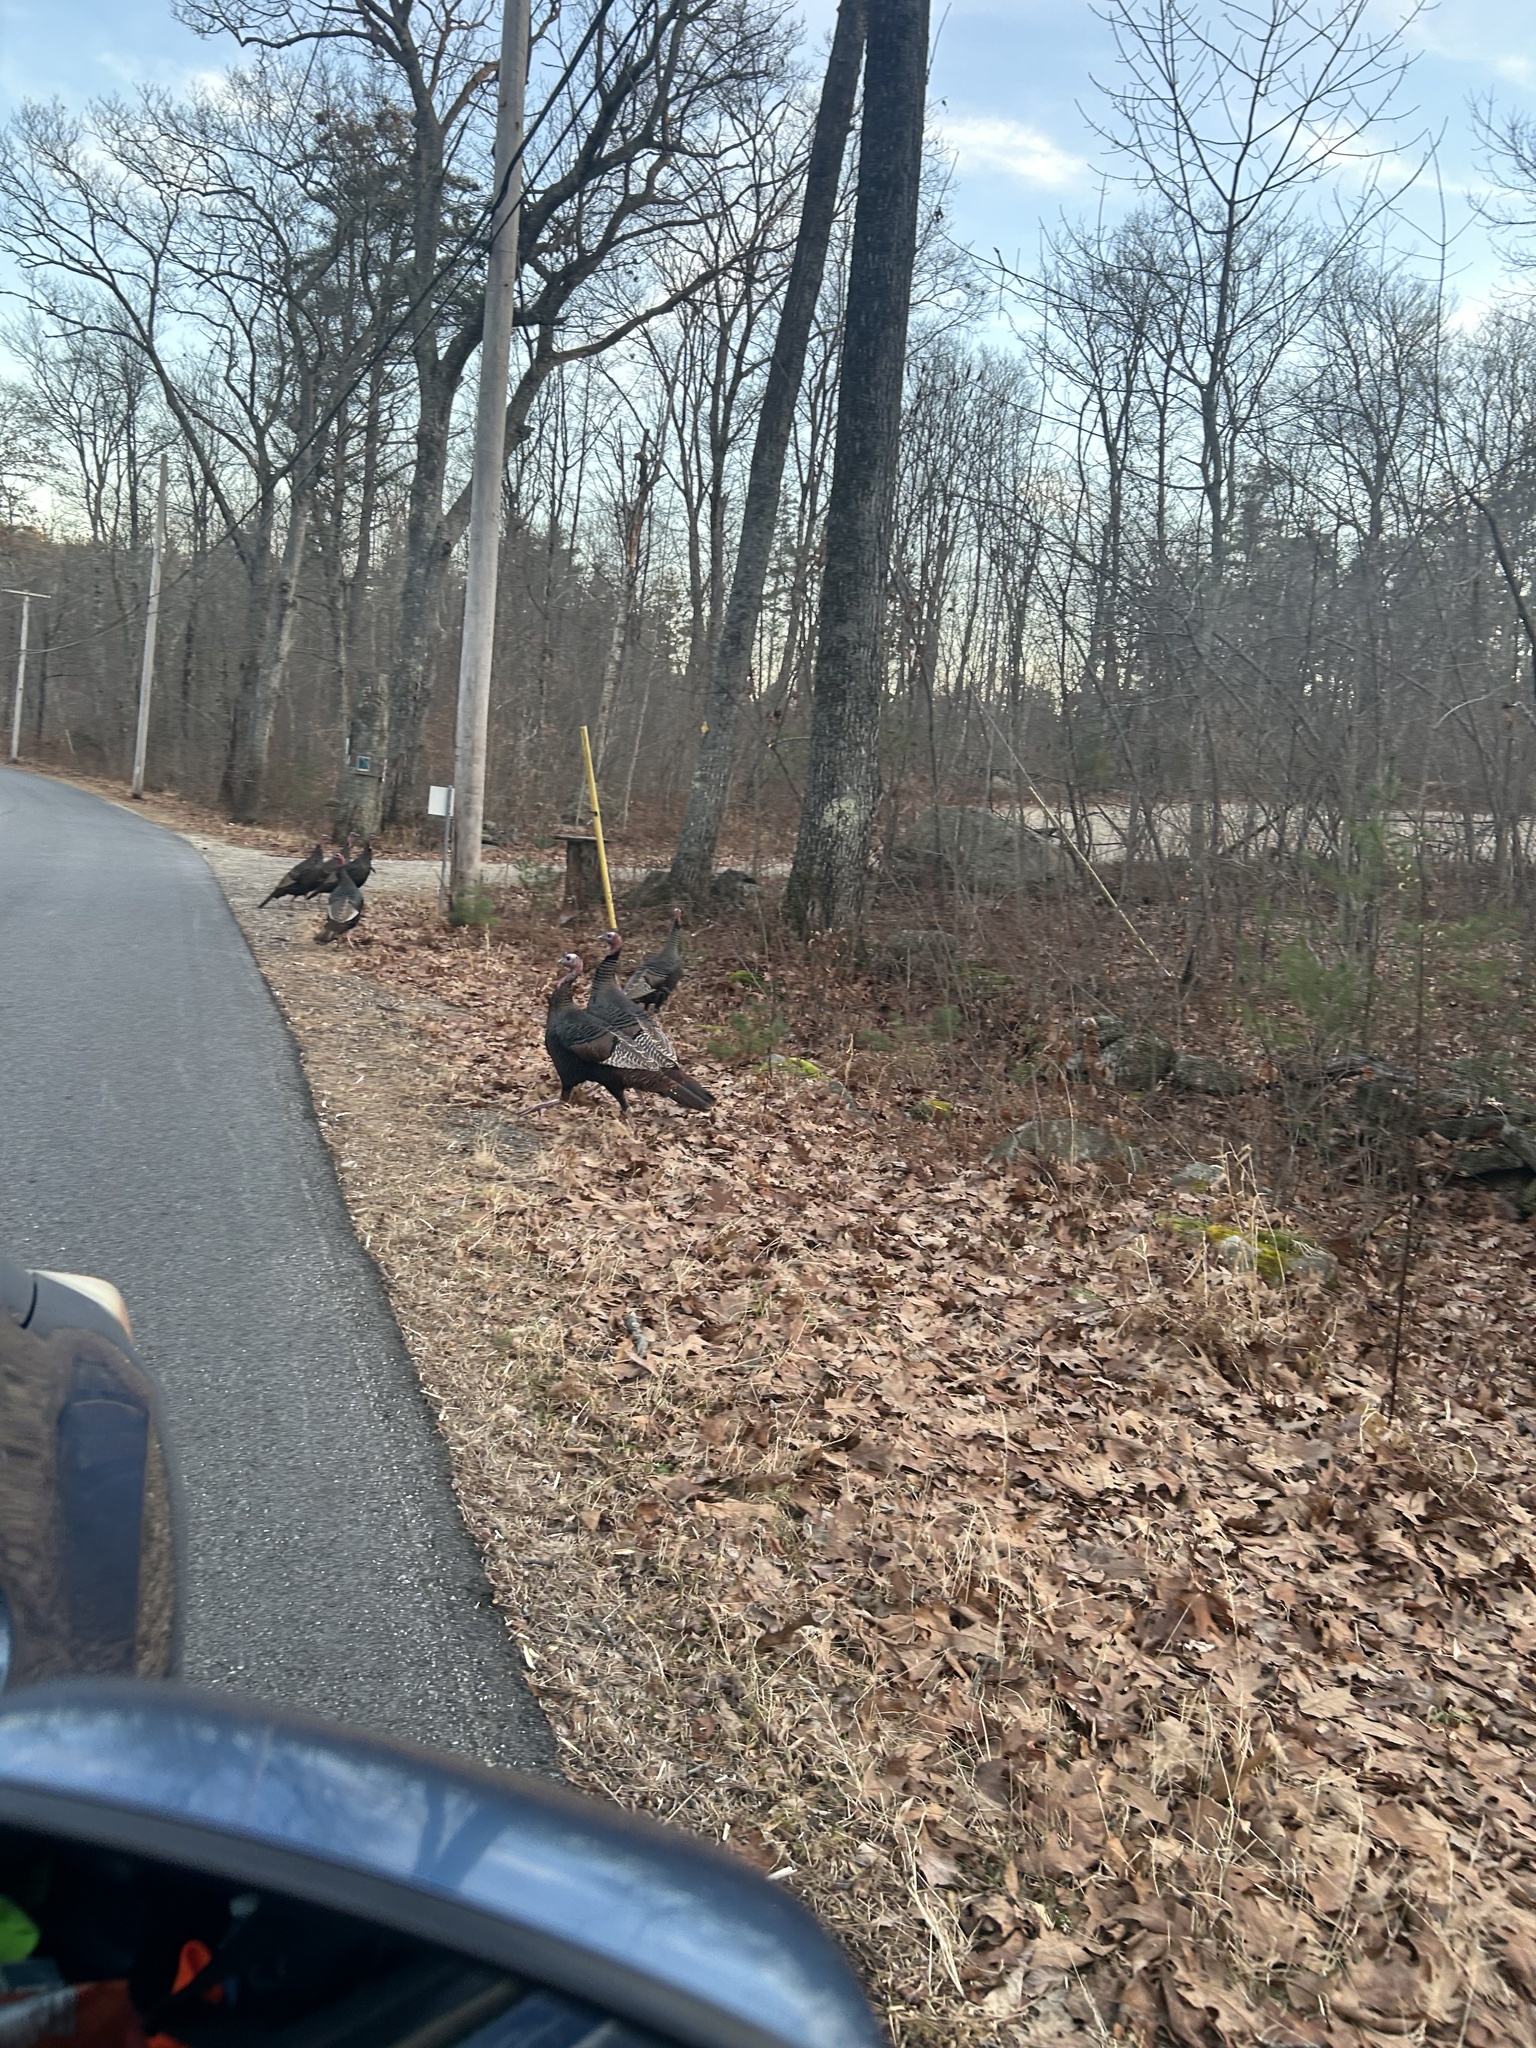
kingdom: Animalia
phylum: Chordata
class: Aves
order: Galliformes
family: Phasianidae
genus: Meleagris
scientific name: Meleagris gallopavo
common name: Wild turkey
